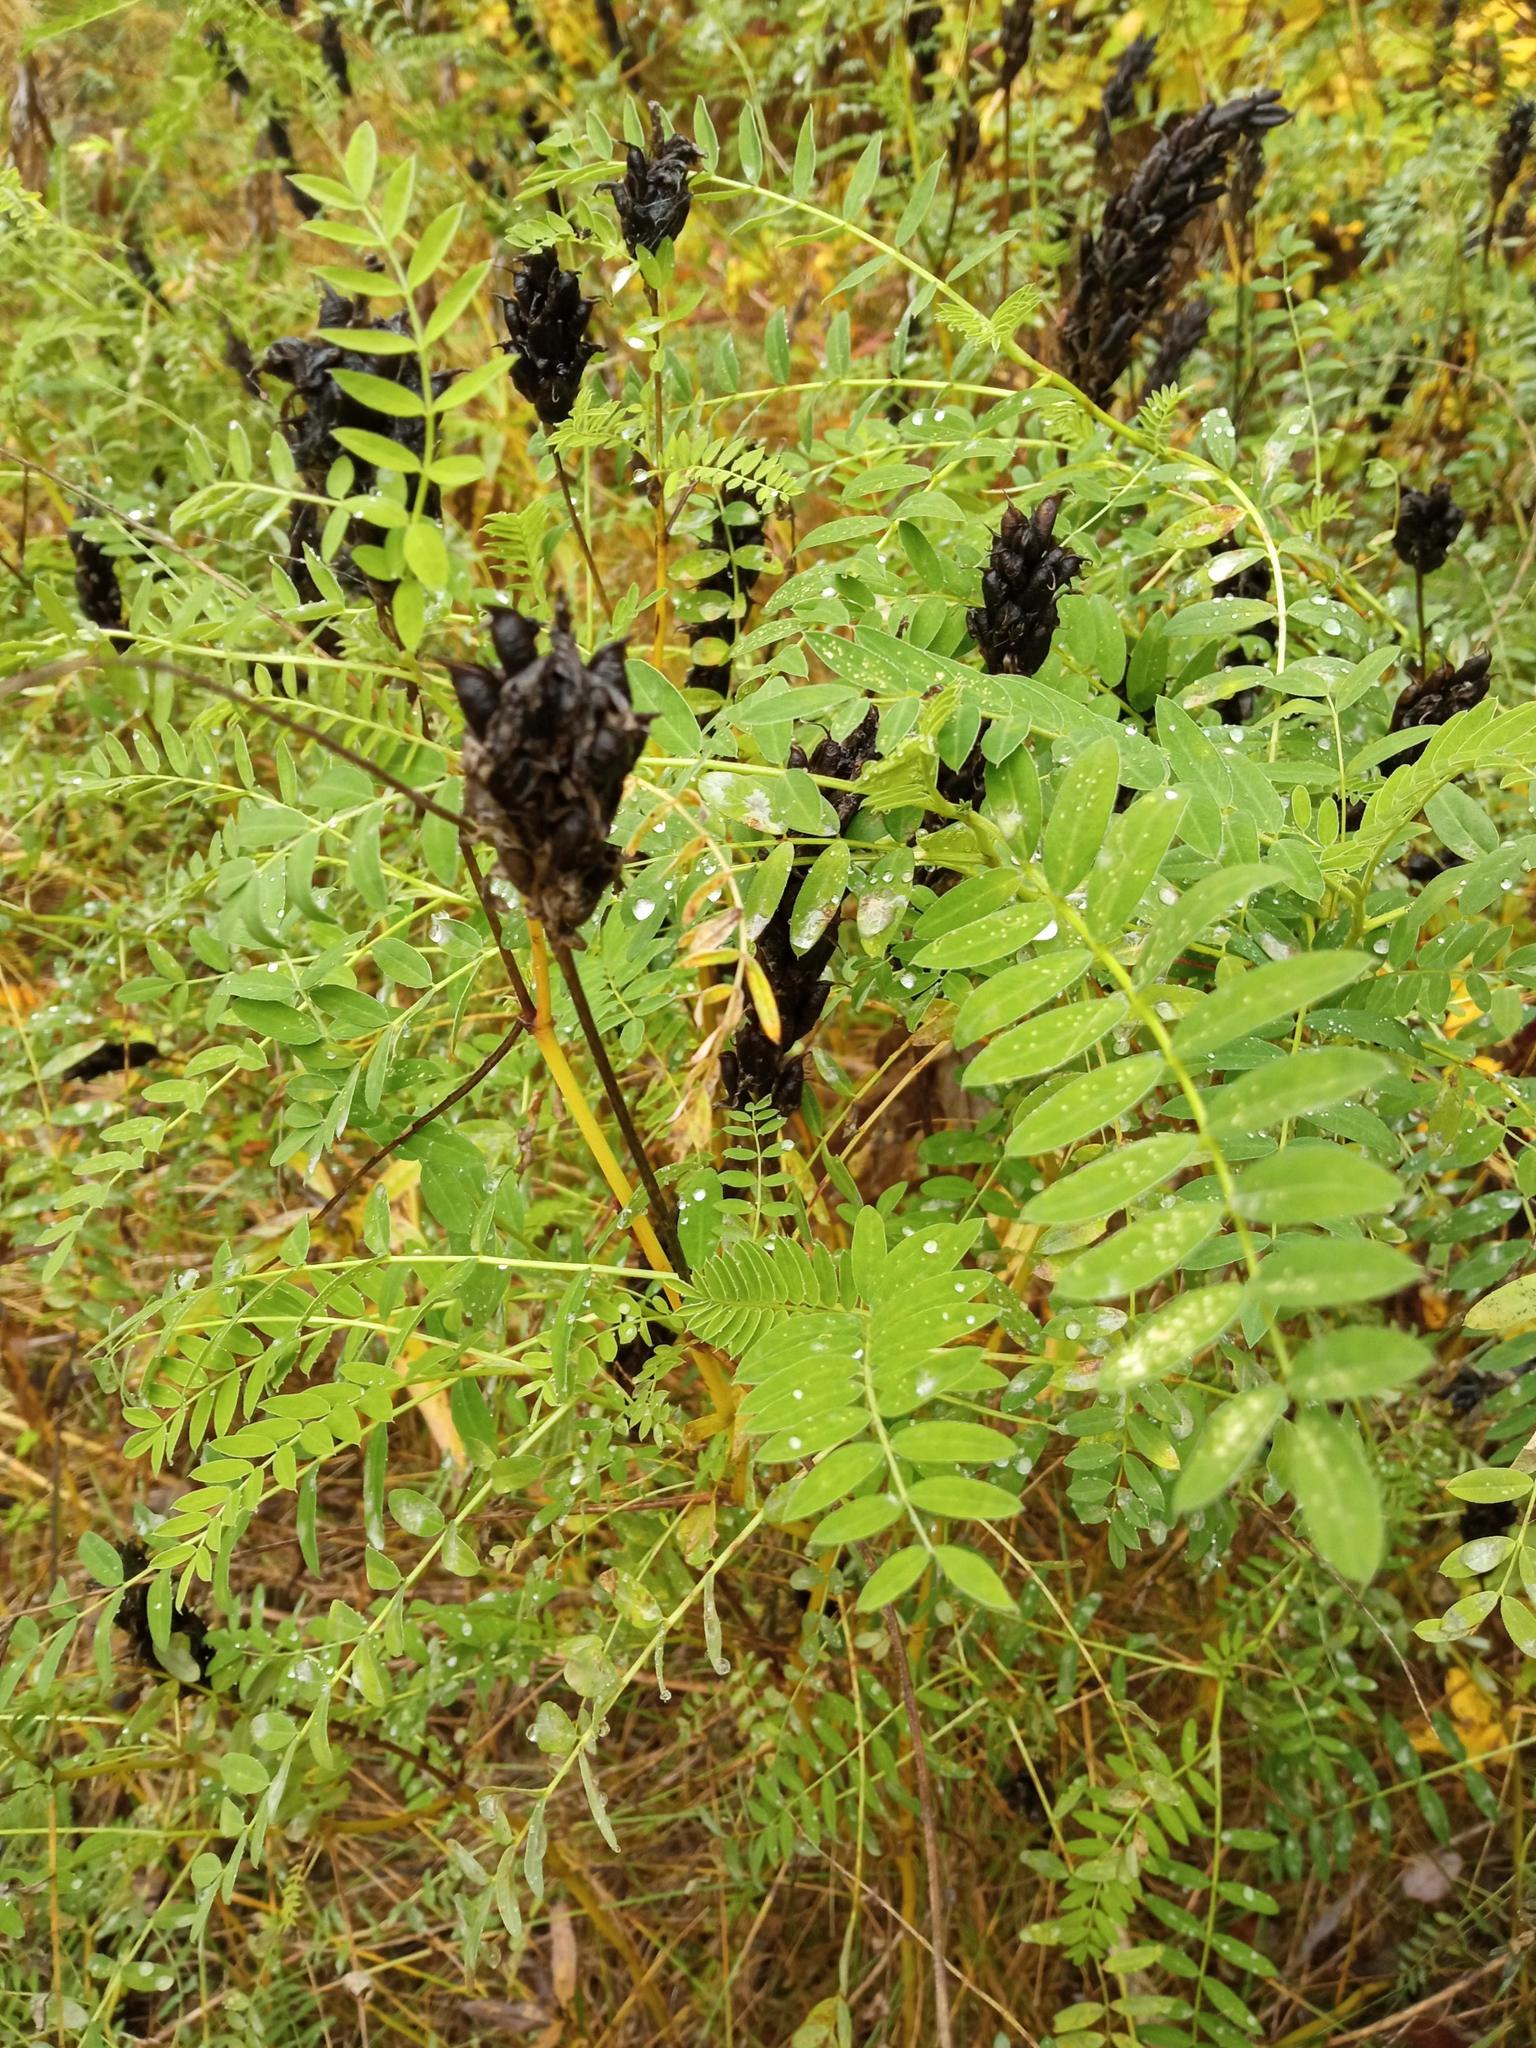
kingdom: Plantae
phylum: Tracheophyta
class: Magnoliopsida
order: Fabales
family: Fabaceae
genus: Astragalus
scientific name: Astragalus uliginosus
